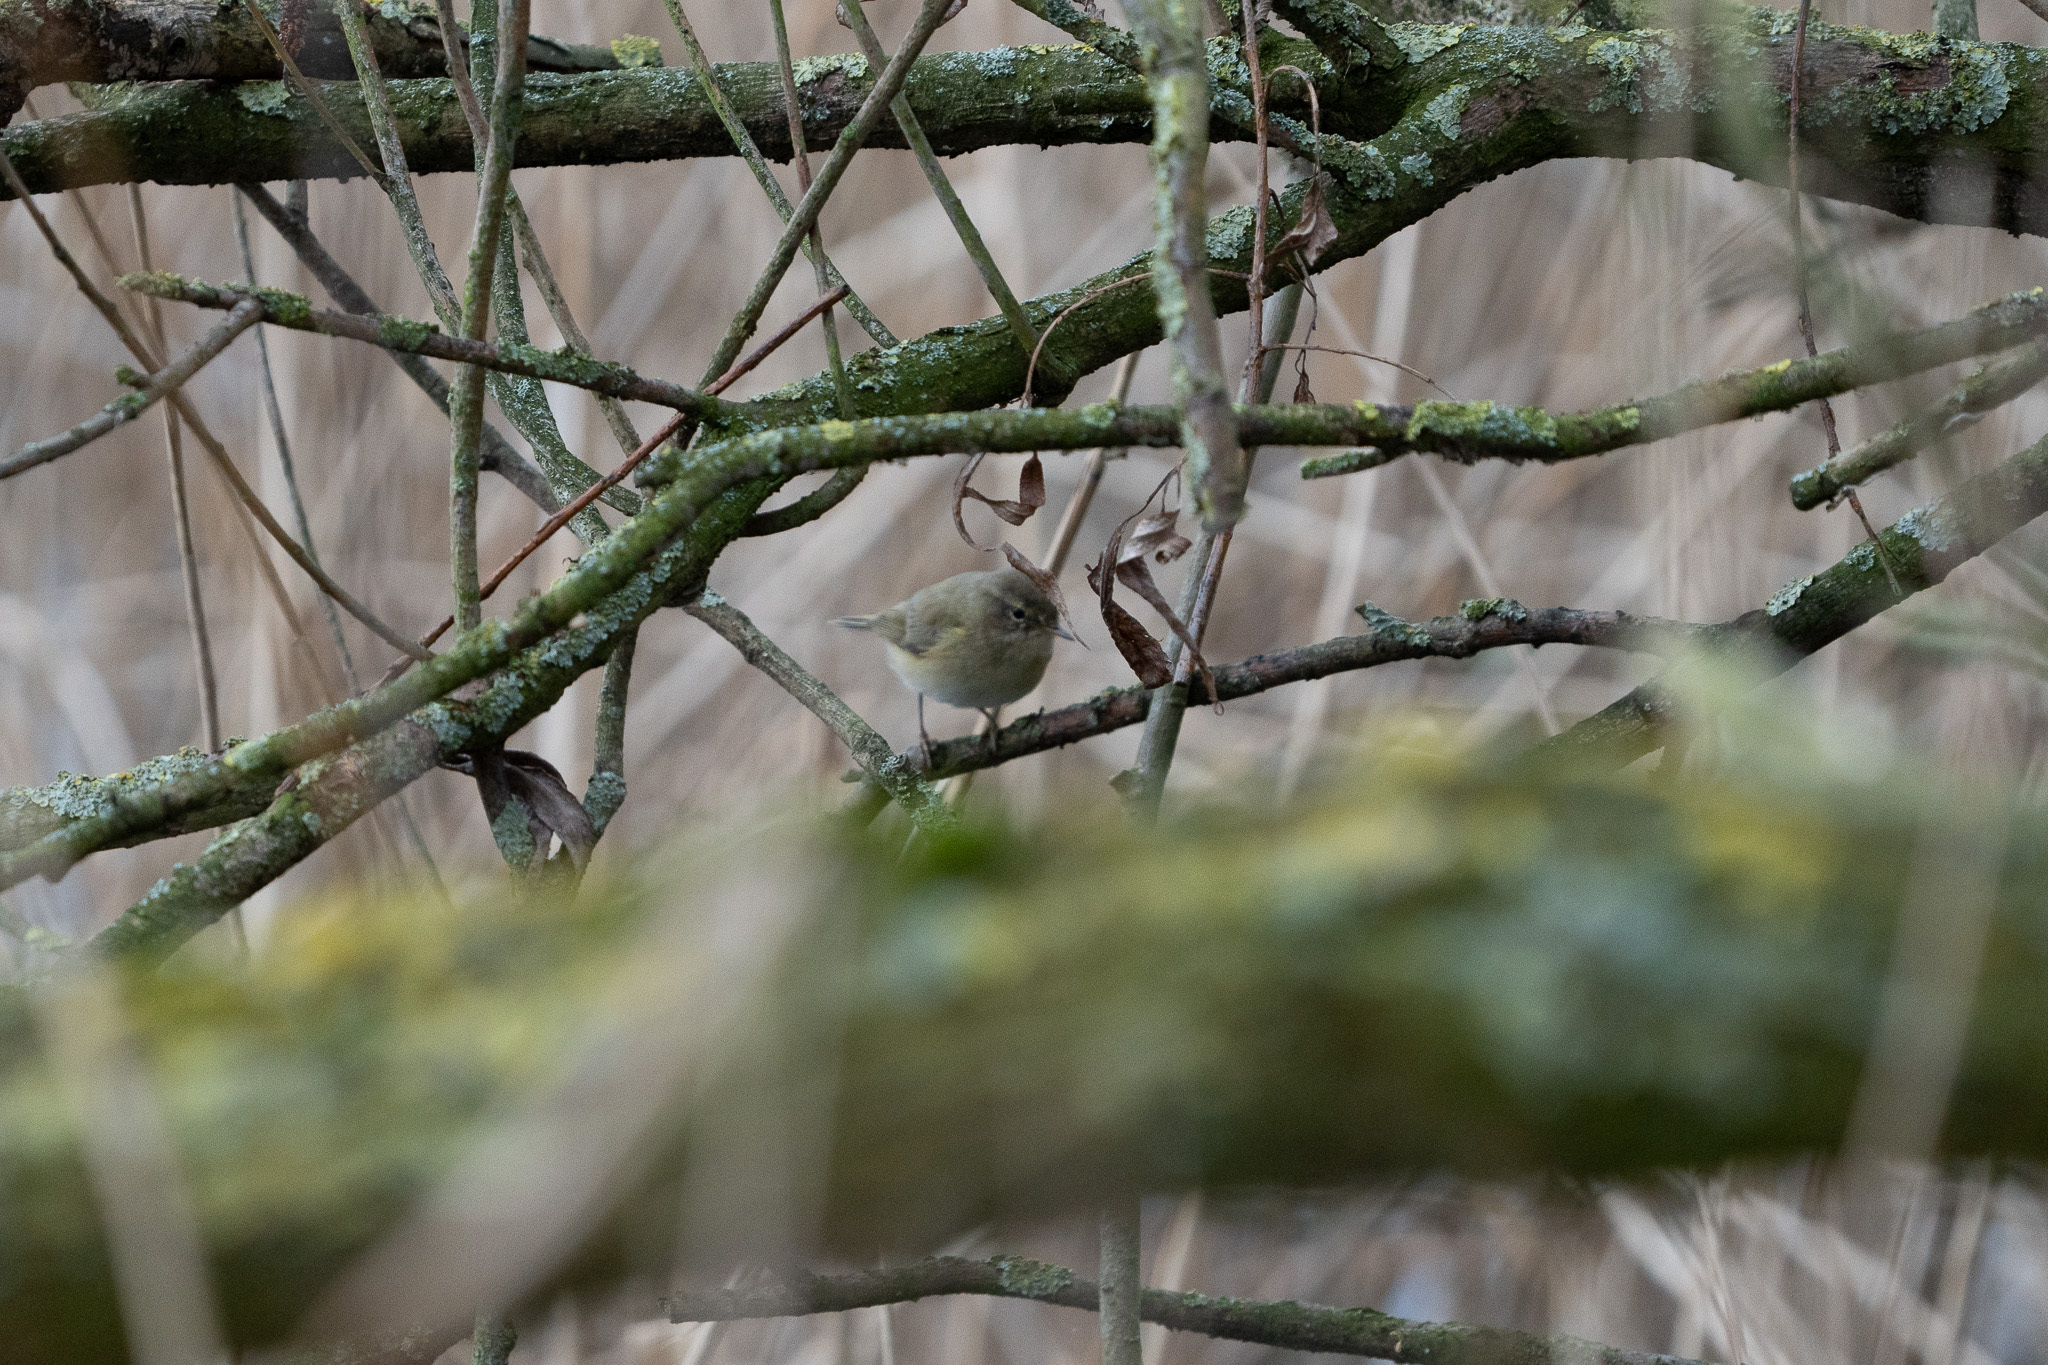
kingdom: Animalia
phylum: Chordata
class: Aves
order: Passeriformes
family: Phylloscopidae
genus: Phylloscopus
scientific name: Phylloscopus collybita
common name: Common chiffchaff
